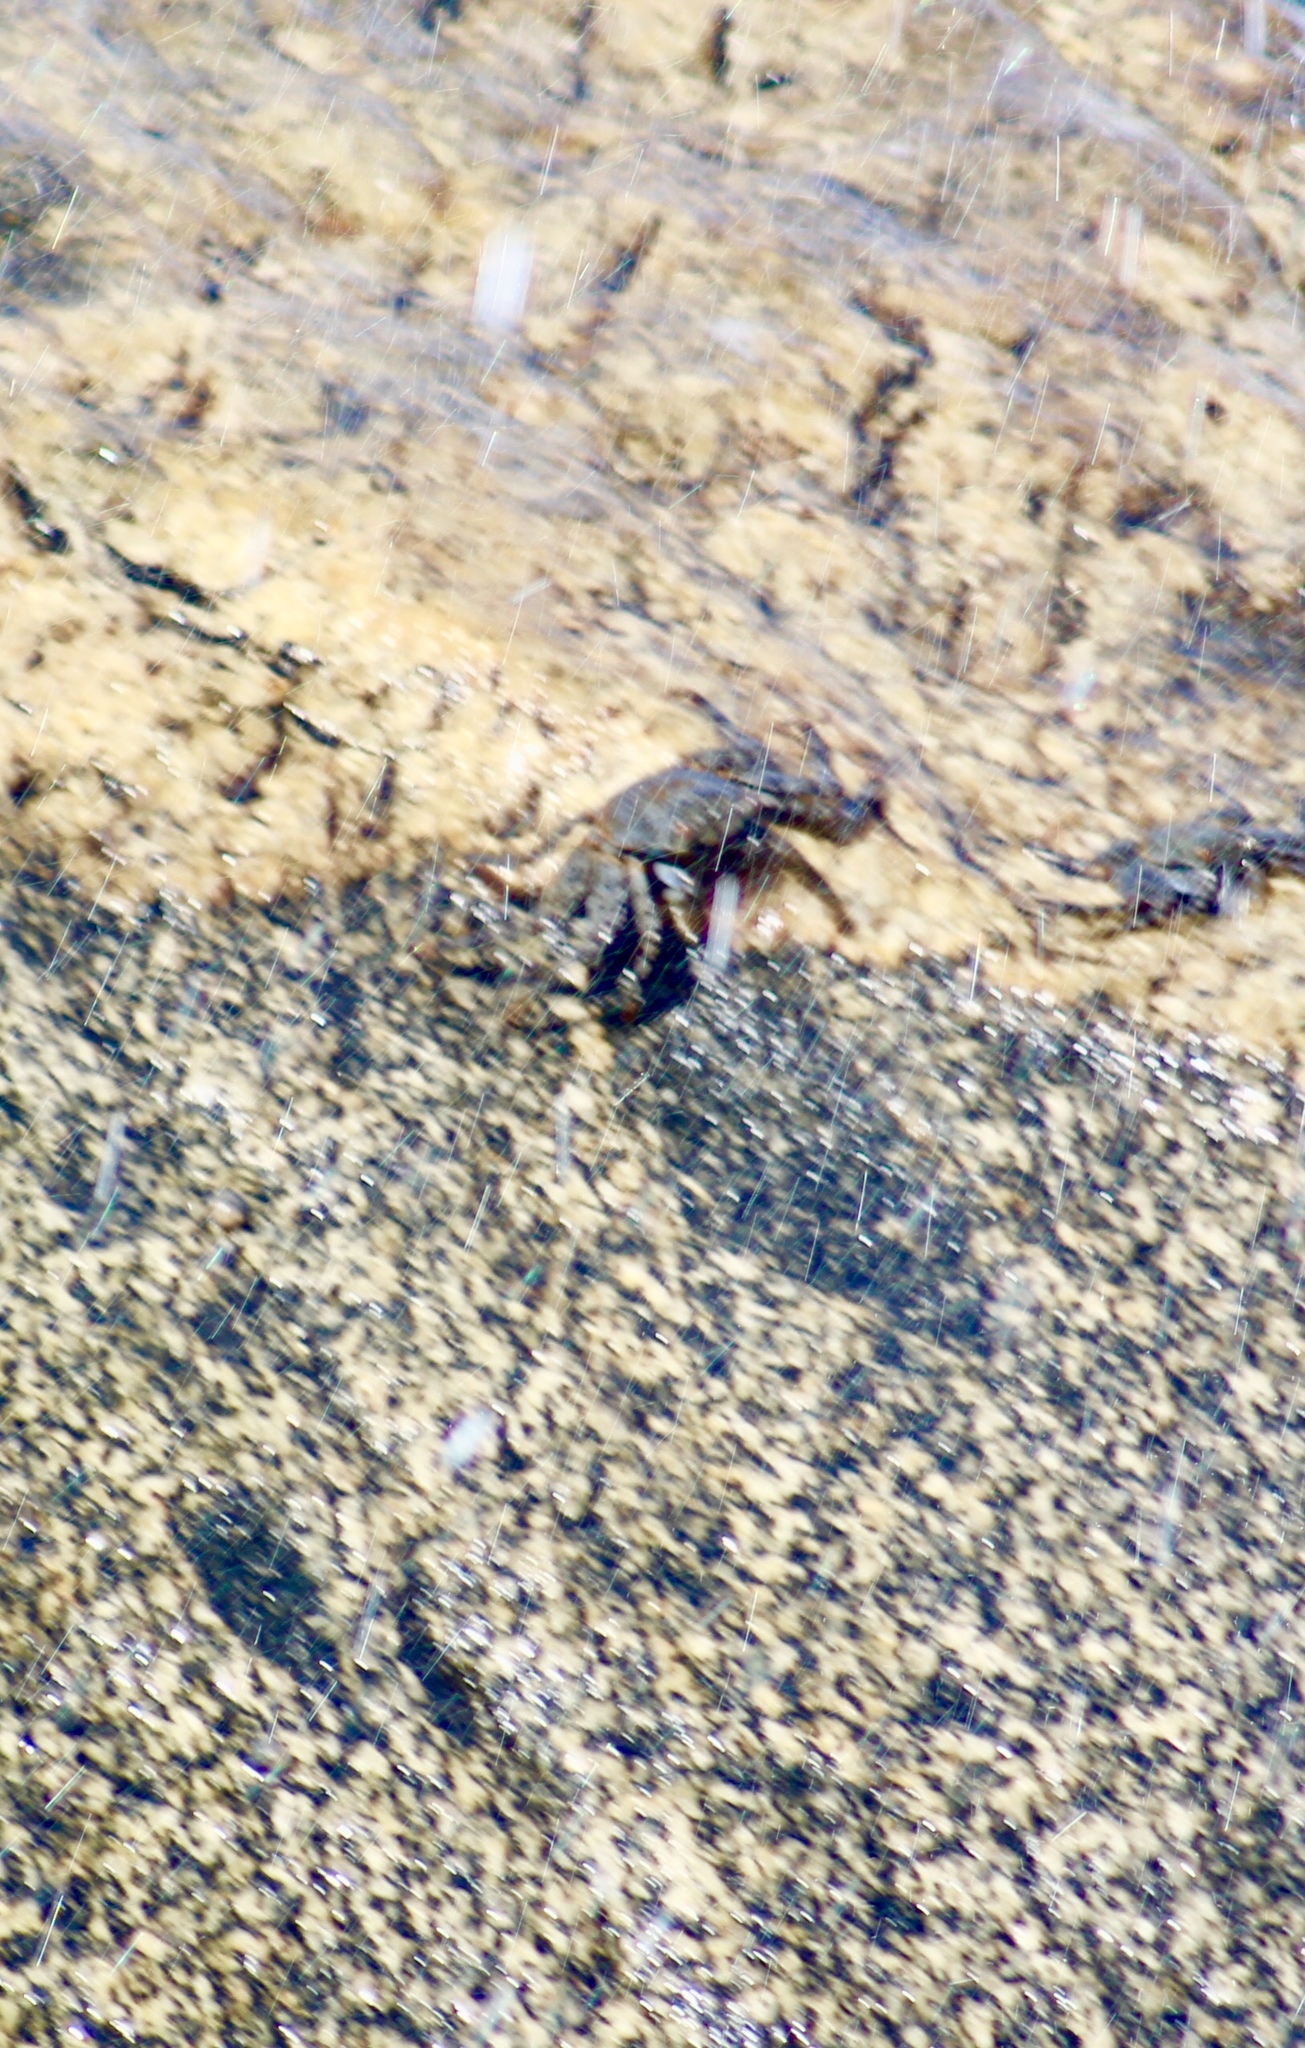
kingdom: Animalia
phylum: Arthropoda
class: Malacostraca
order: Decapoda
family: Grapsidae
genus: Grapsus
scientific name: Grapsus grapsus
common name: Sally lightfoot
